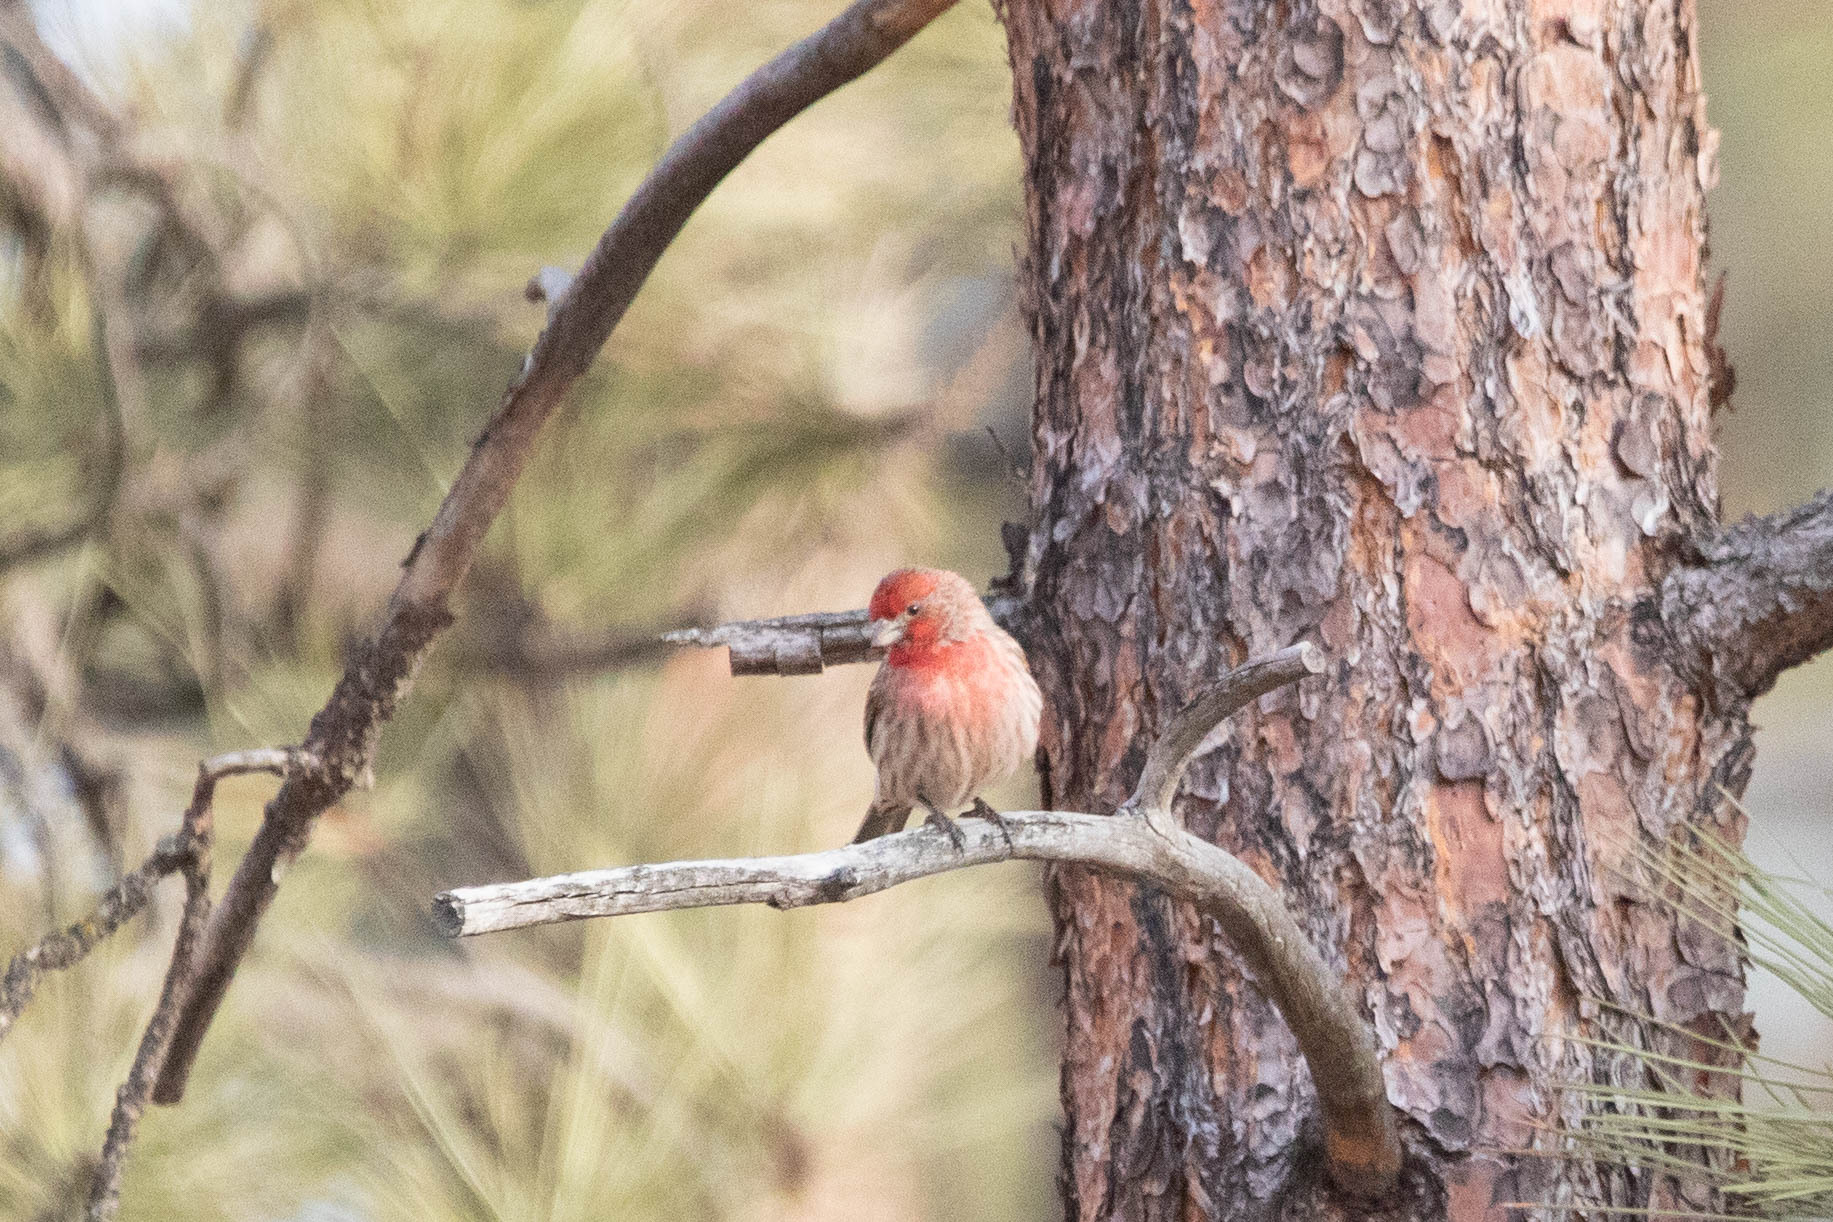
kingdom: Animalia
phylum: Chordata
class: Aves
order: Passeriformes
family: Fringillidae
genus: Haemorhous
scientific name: Haemorhous mexicanus
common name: House finch
